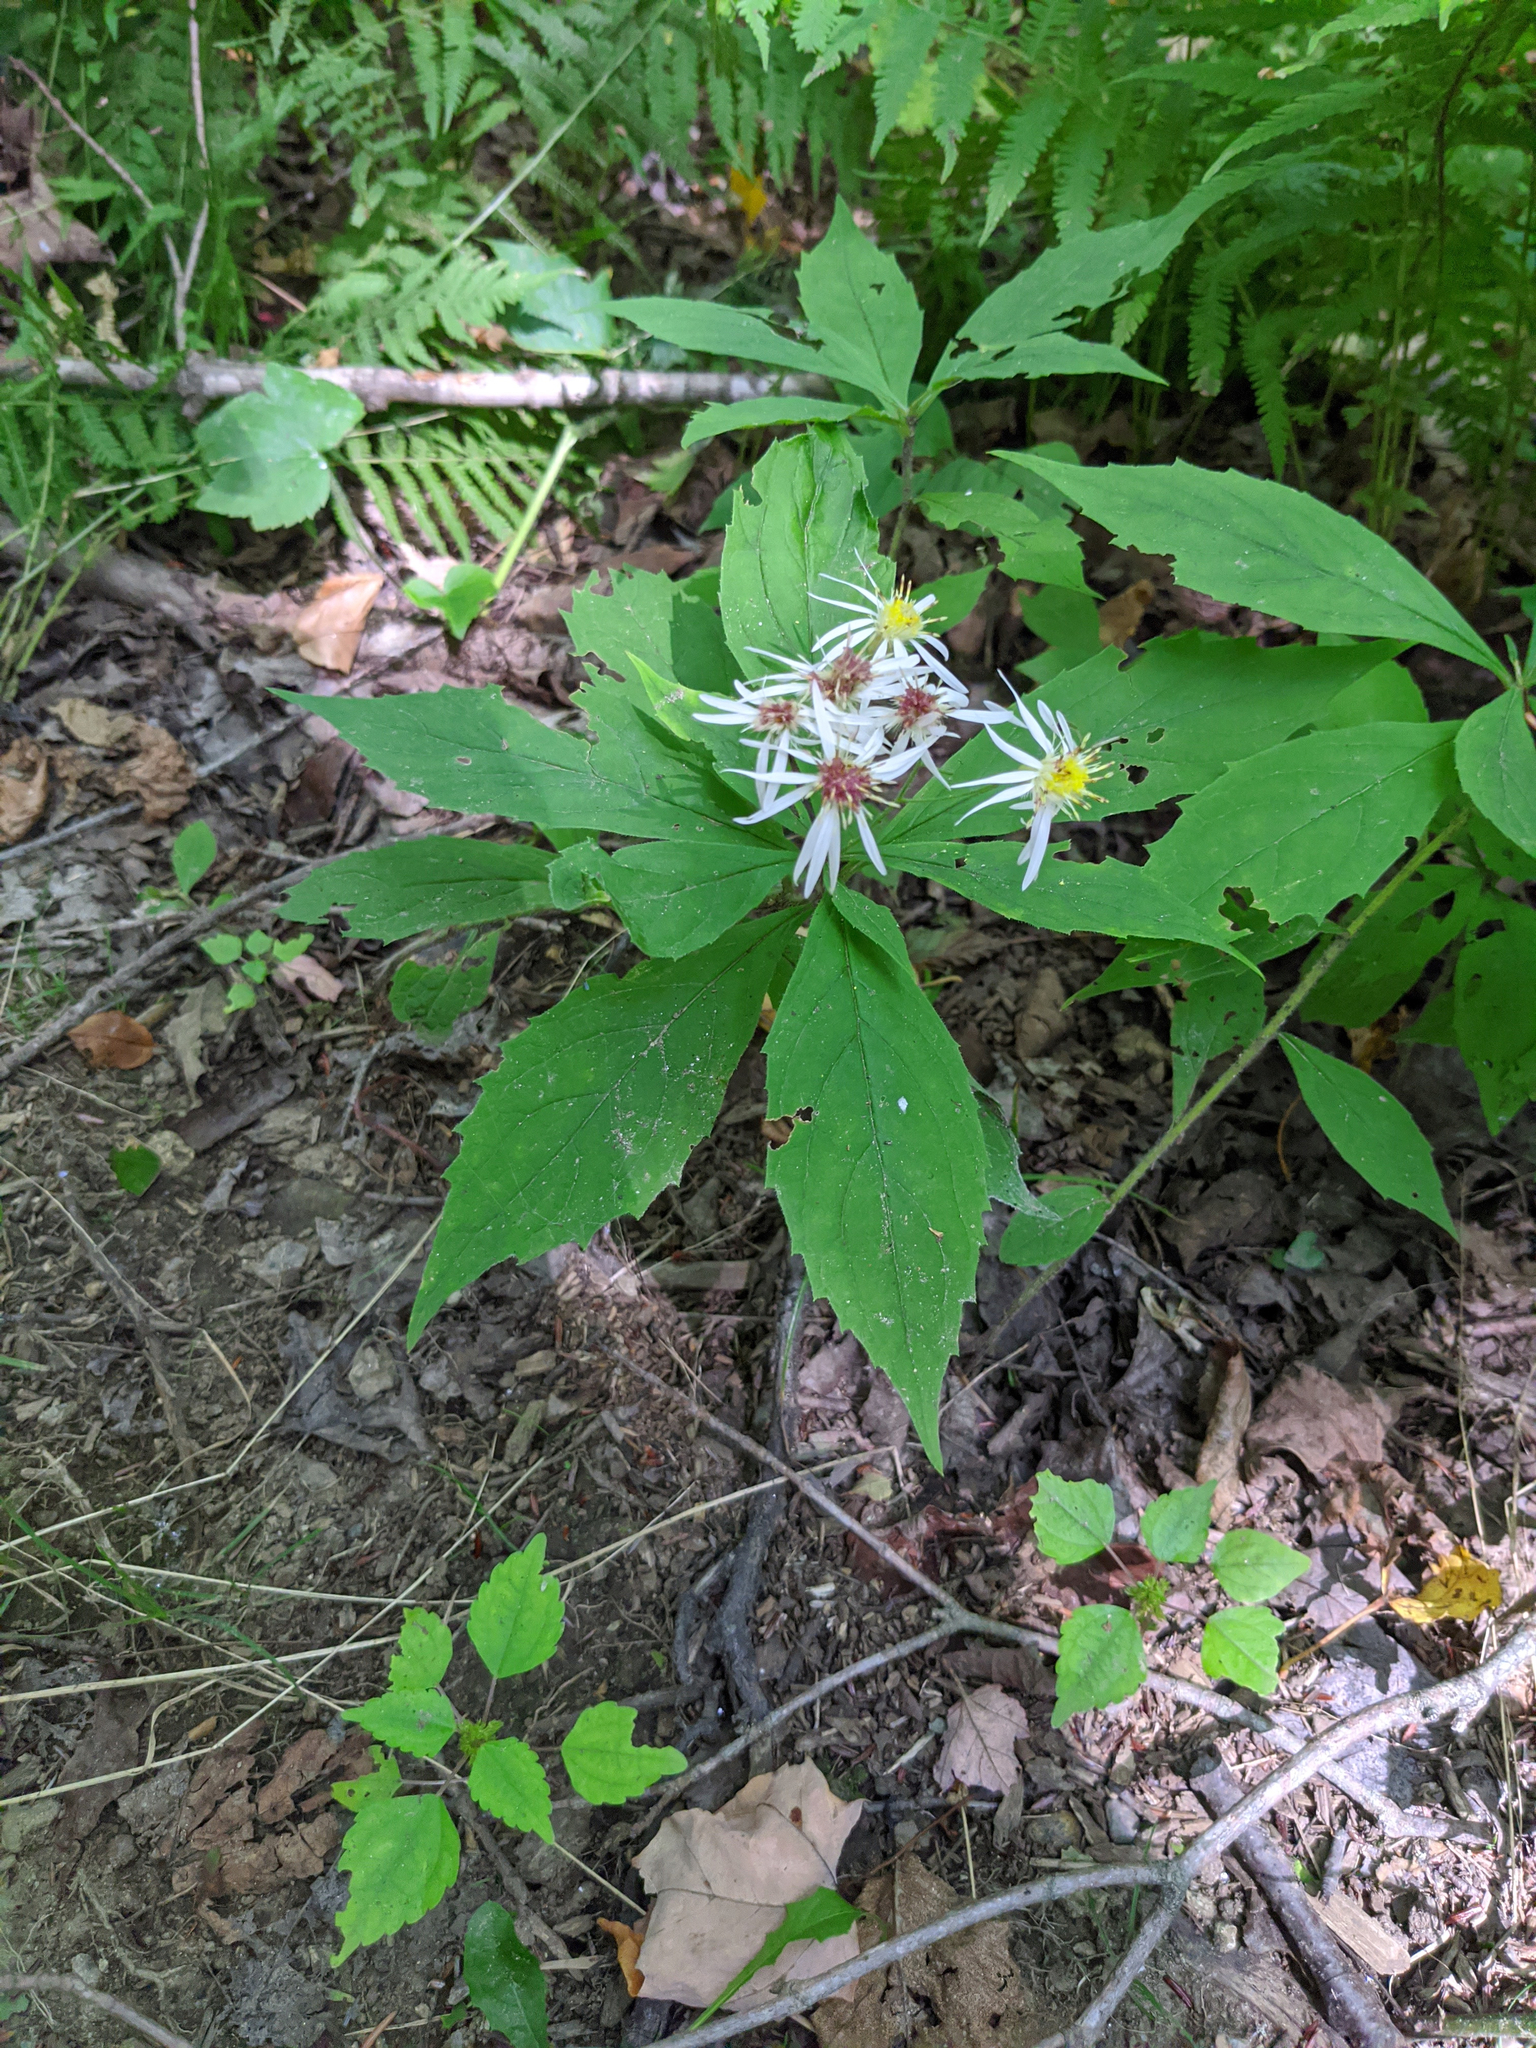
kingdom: Plantae
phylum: Tracheophyta
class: Magnoliopsida
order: Asterales
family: Asteraceae
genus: Oclemena
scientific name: Oclemena acuminata
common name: Mountain aster
